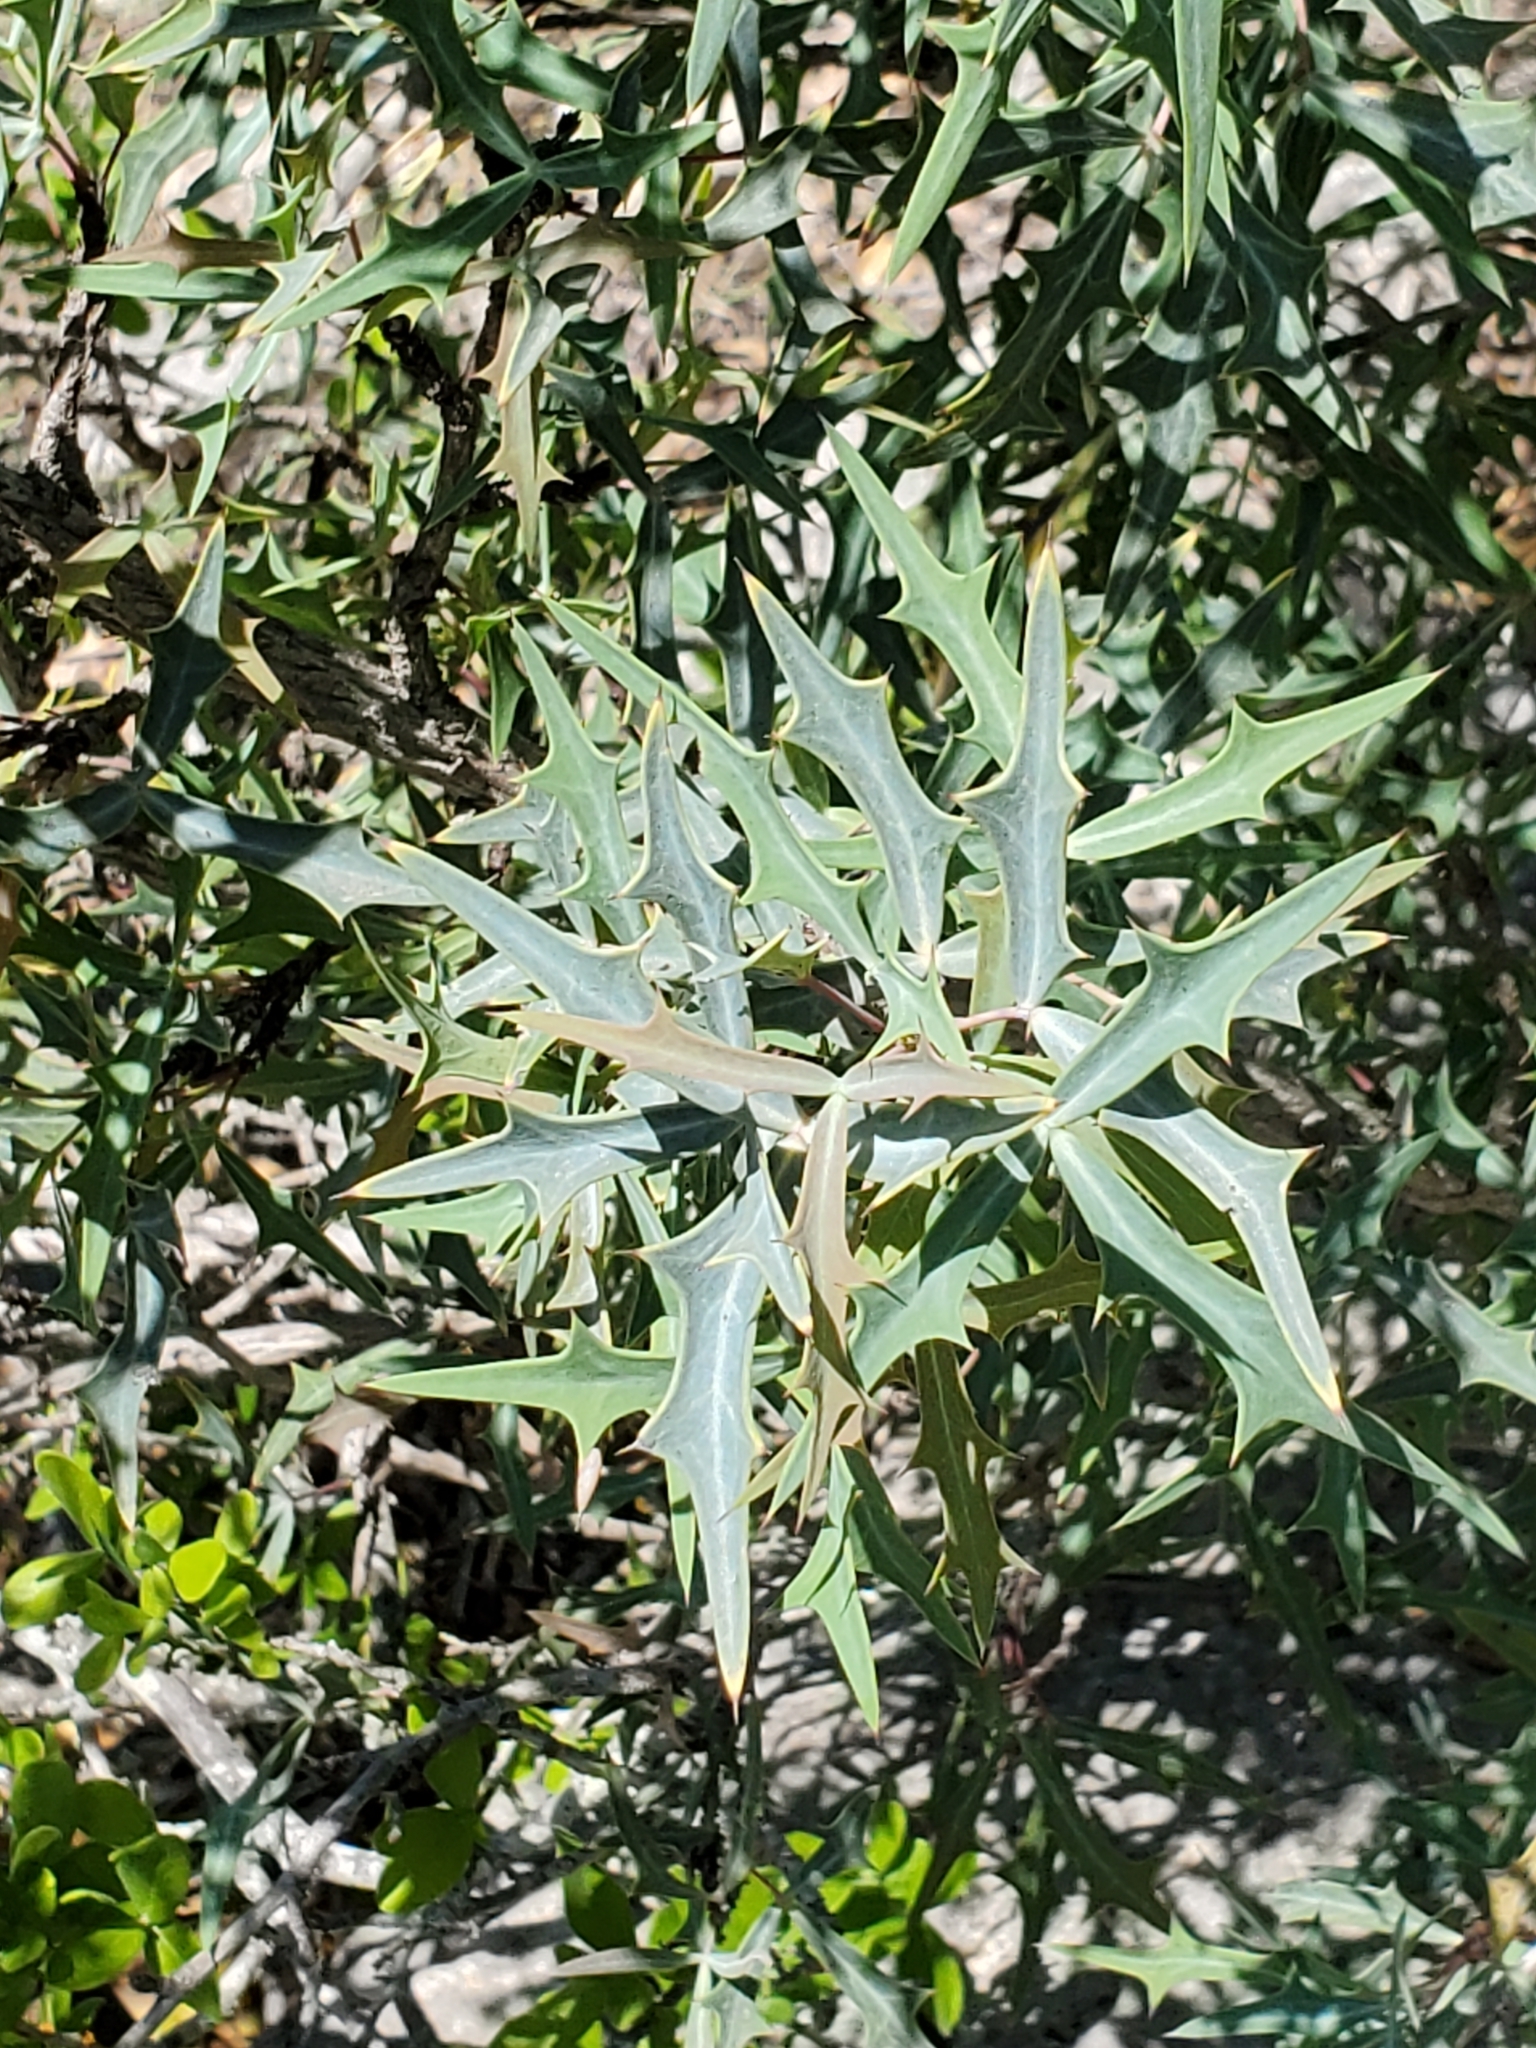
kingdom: Plantae
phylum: Tracheophyta
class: Magnoliopsida
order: Ranunculales
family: Berberidaceae
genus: Alloberberis
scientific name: Alloberberis trifoliolata
